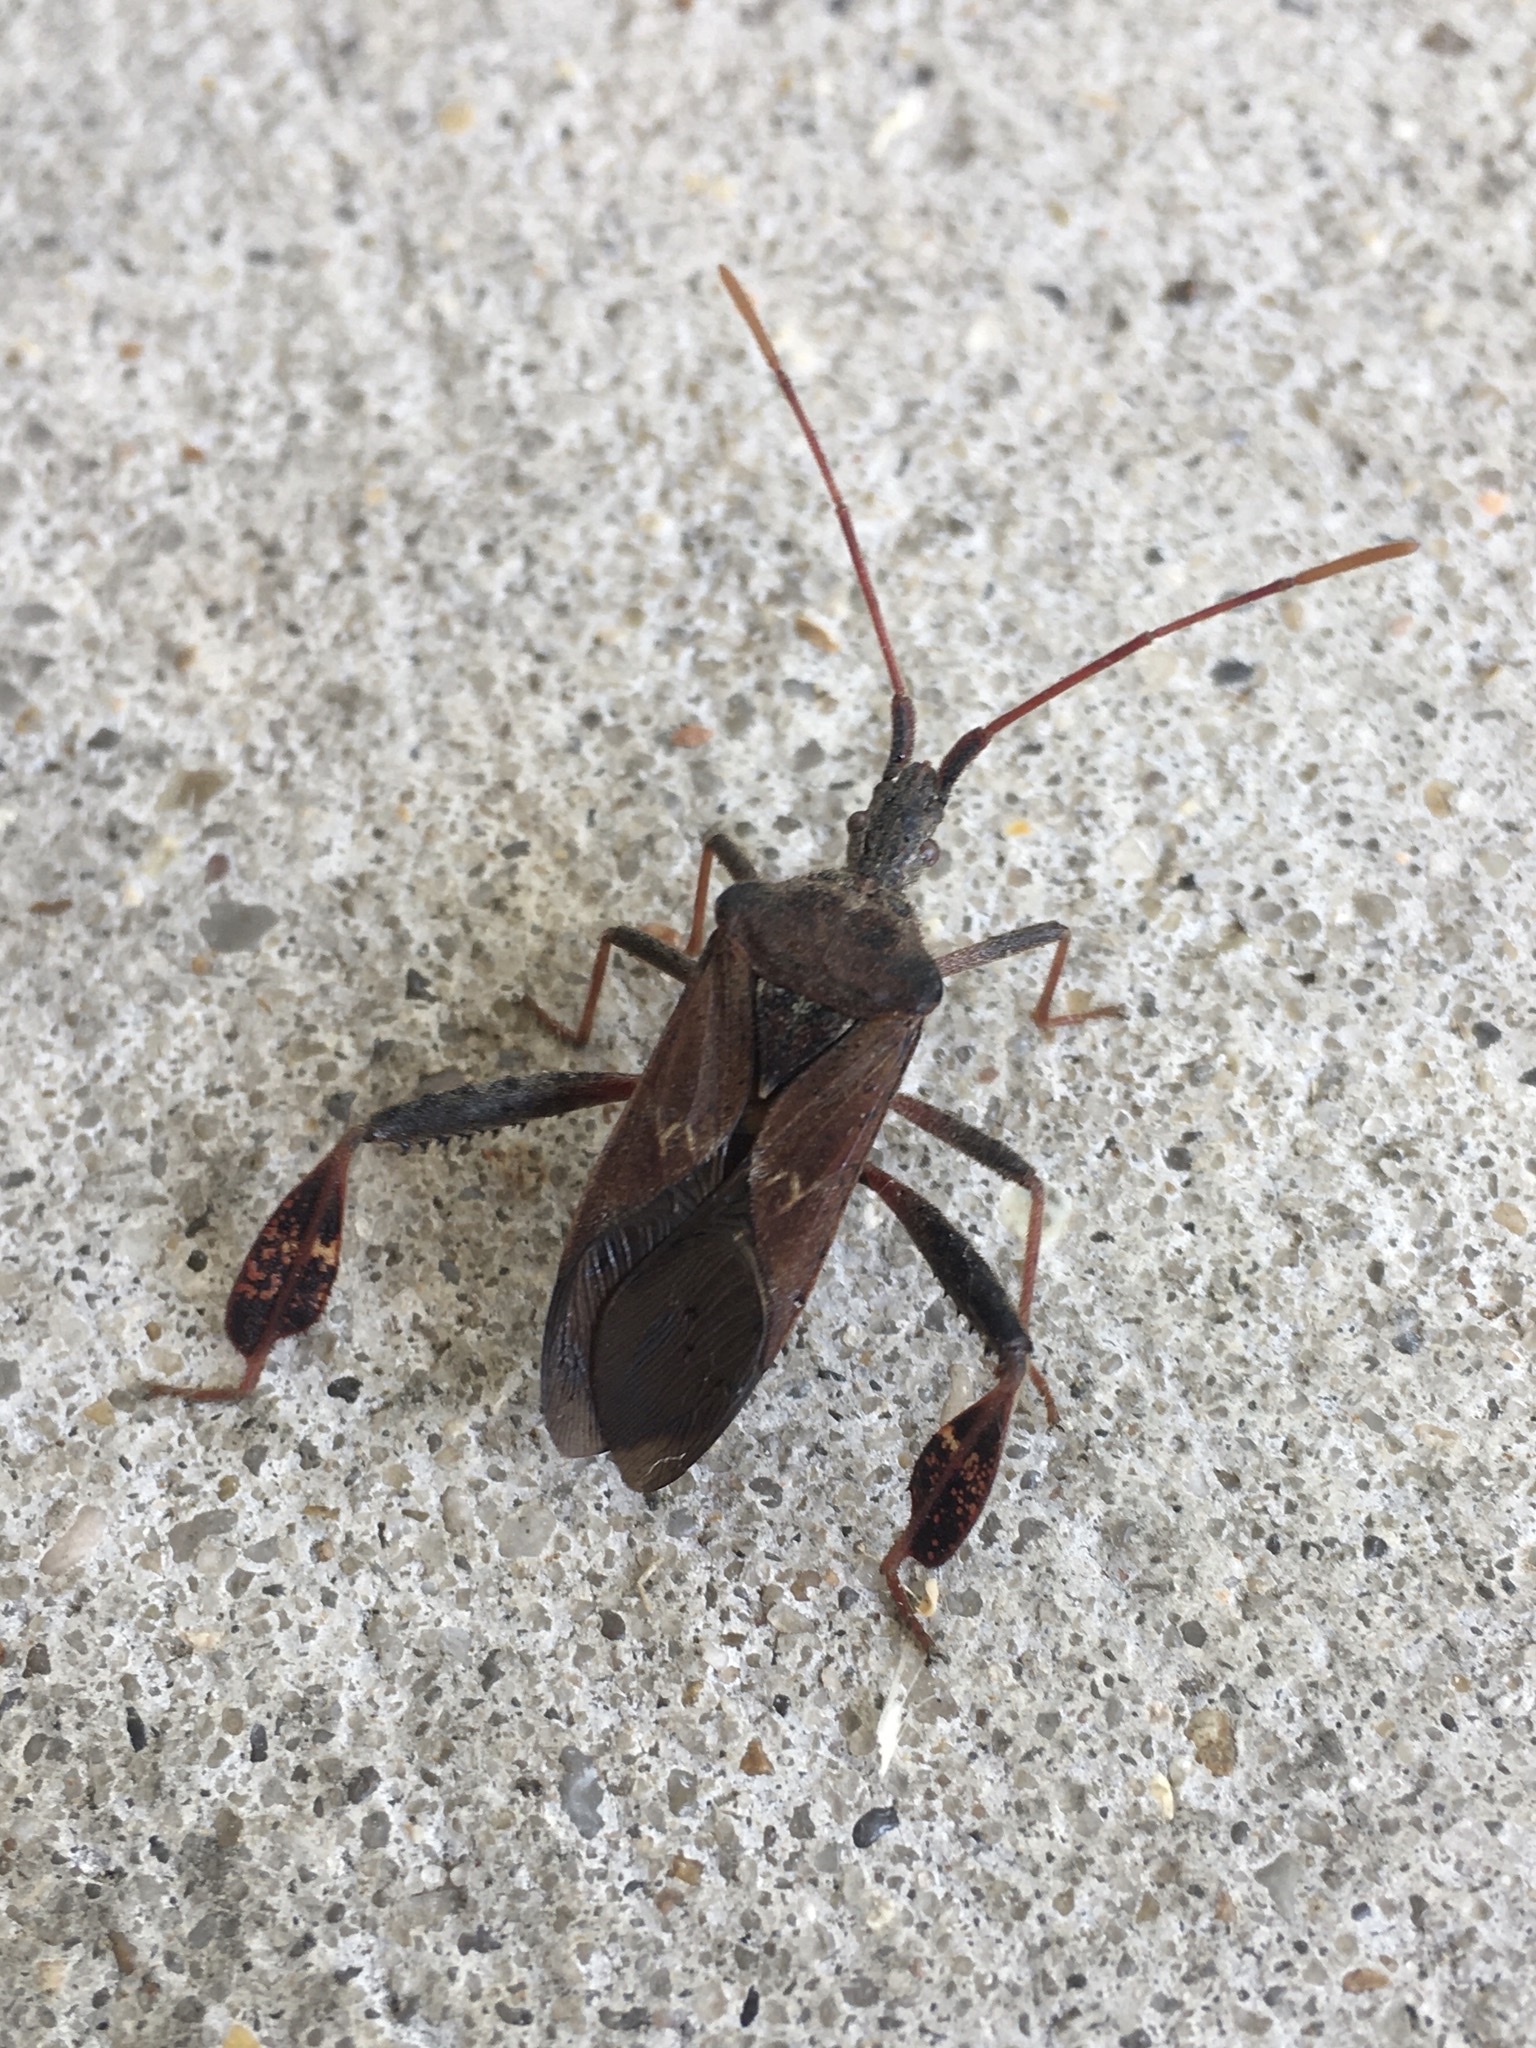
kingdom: Animalia
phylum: Arthropoda
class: Insecta
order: Hemiptera
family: Coreidae
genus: Leptoglossus
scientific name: Leptoglossus corculus
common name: Southern pine seed bug
